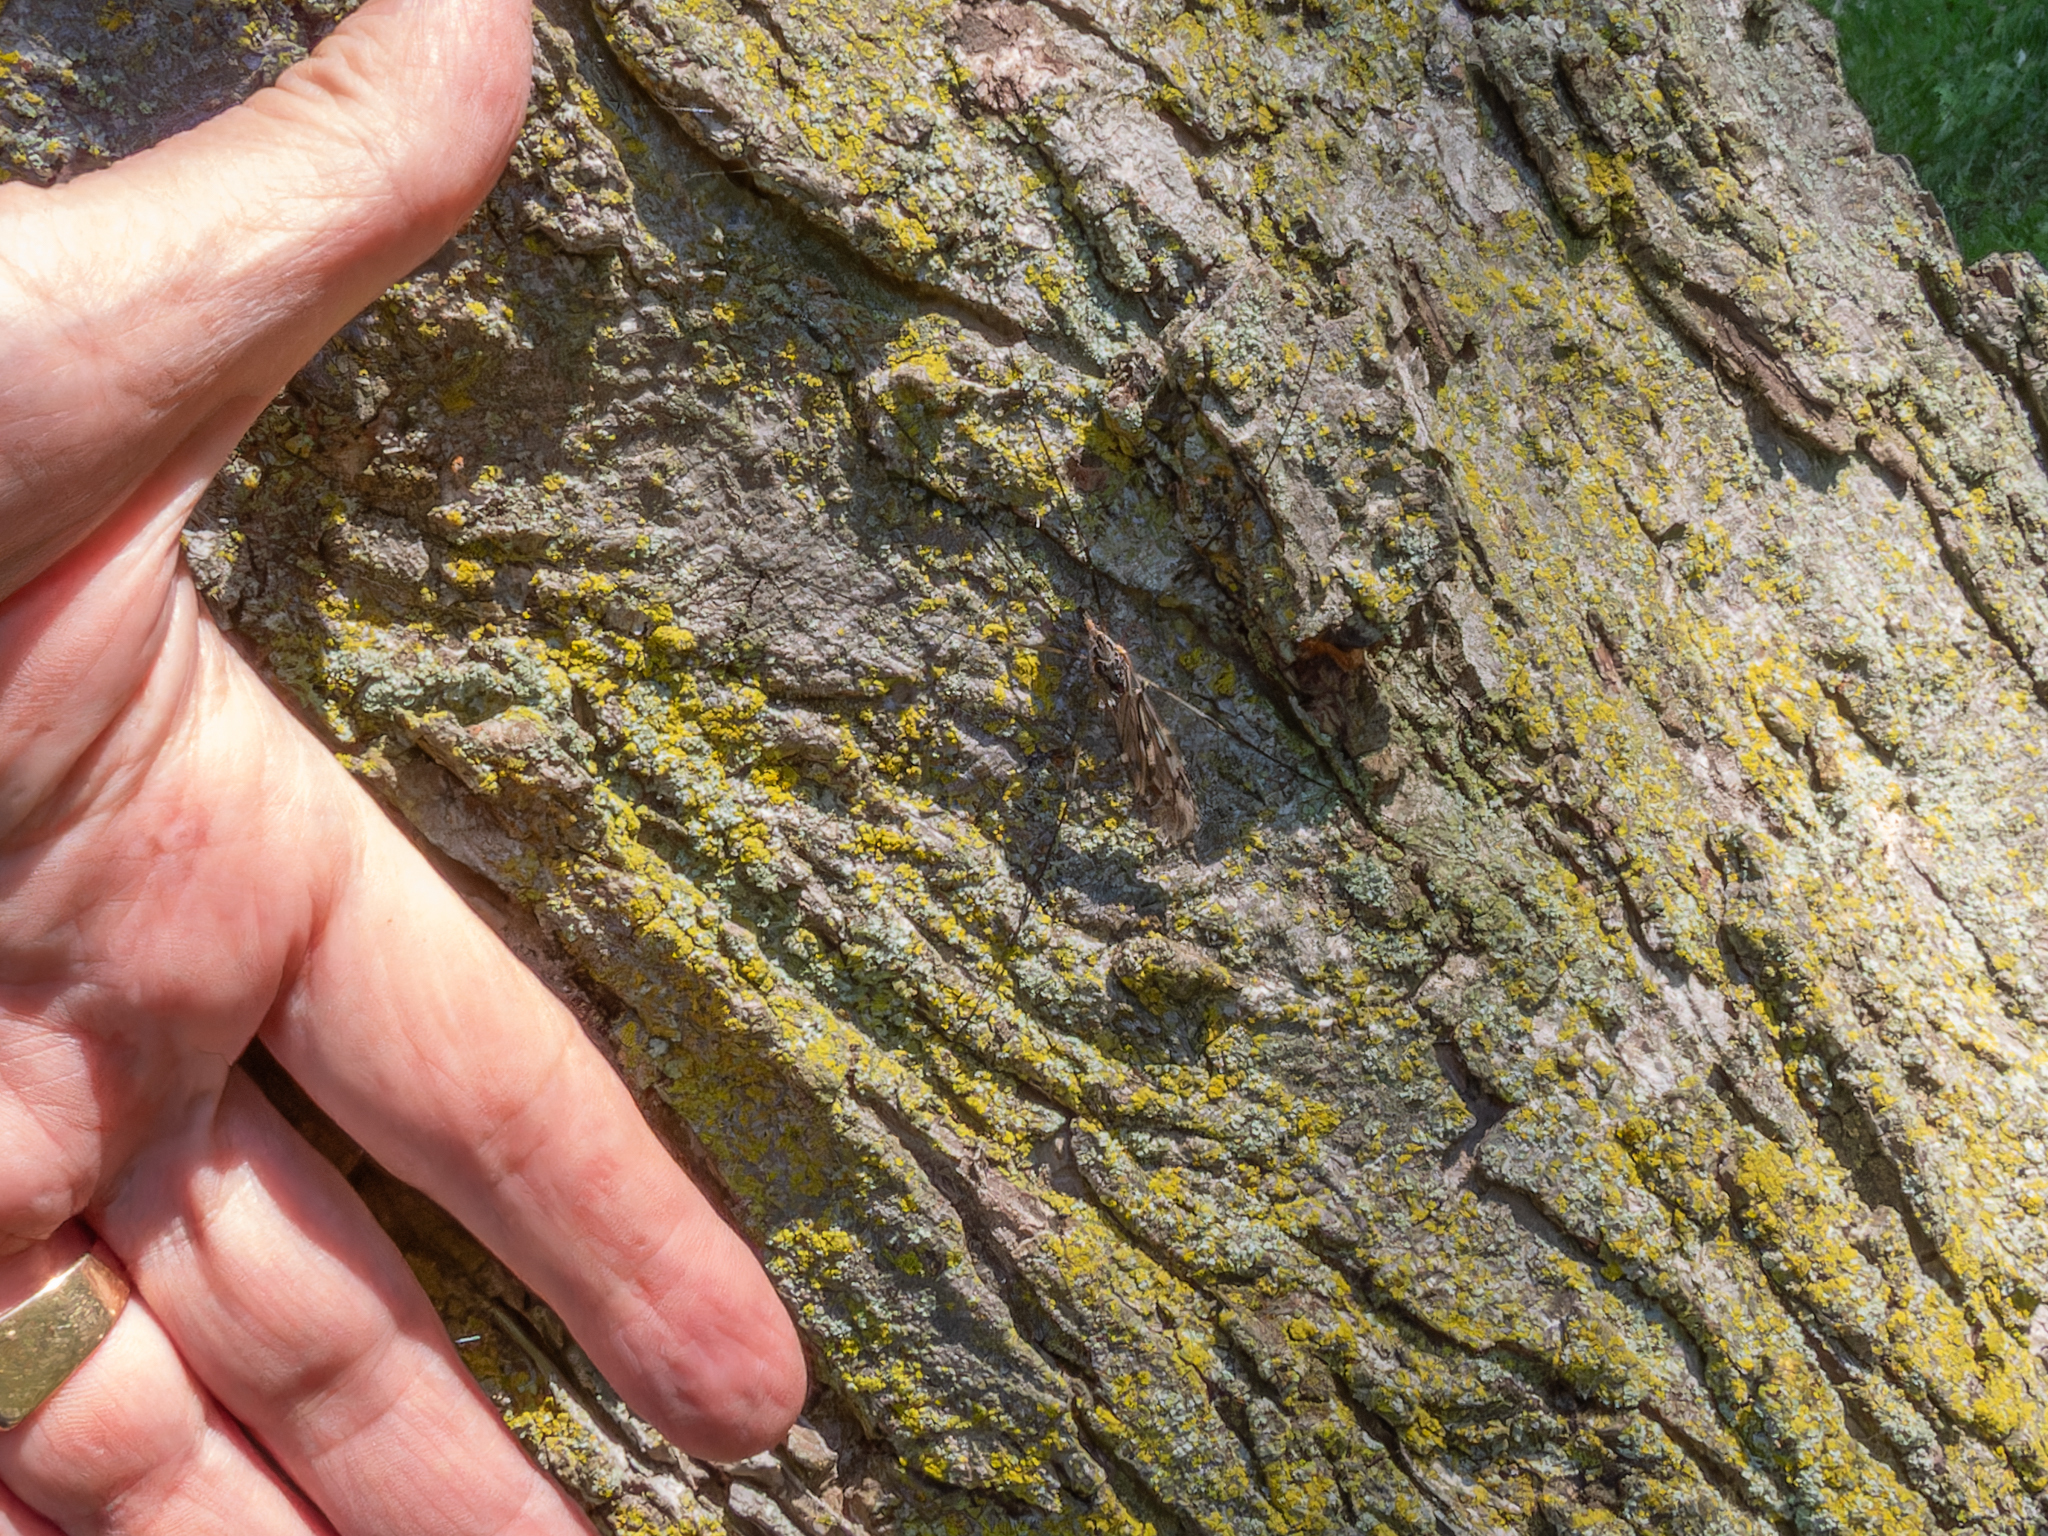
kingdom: Animalia
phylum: Arthropoda
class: Insecta
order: Diptera
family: Tipulidae
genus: Tipula
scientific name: Tipula abdominalis
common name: Giant crane fly
